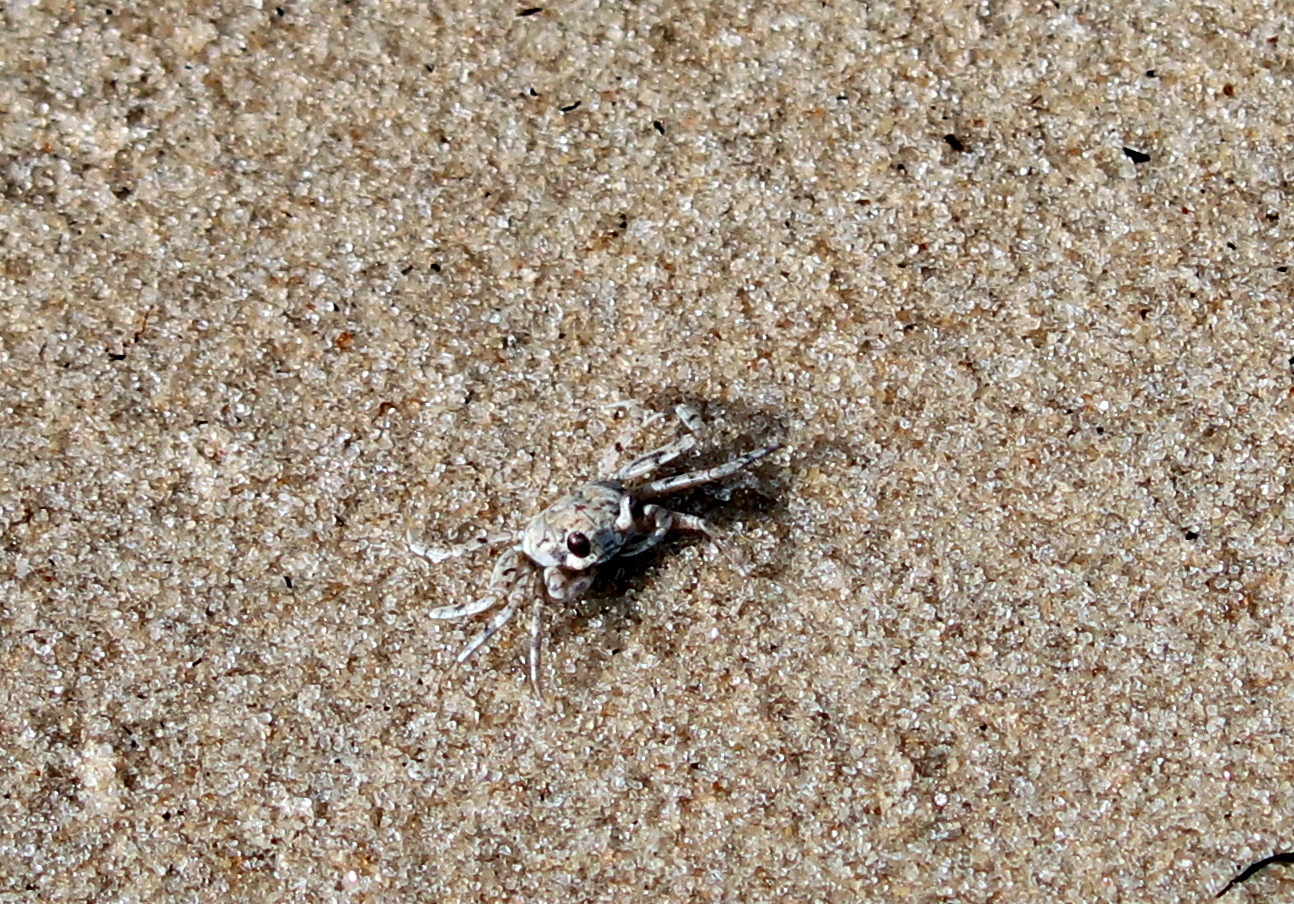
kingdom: Animalia
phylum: Arthropoda
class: Malacostraca
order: Decapoda
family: Ocypodidae
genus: Ocypode
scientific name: Ocypode quadrata
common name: Ghost crab
